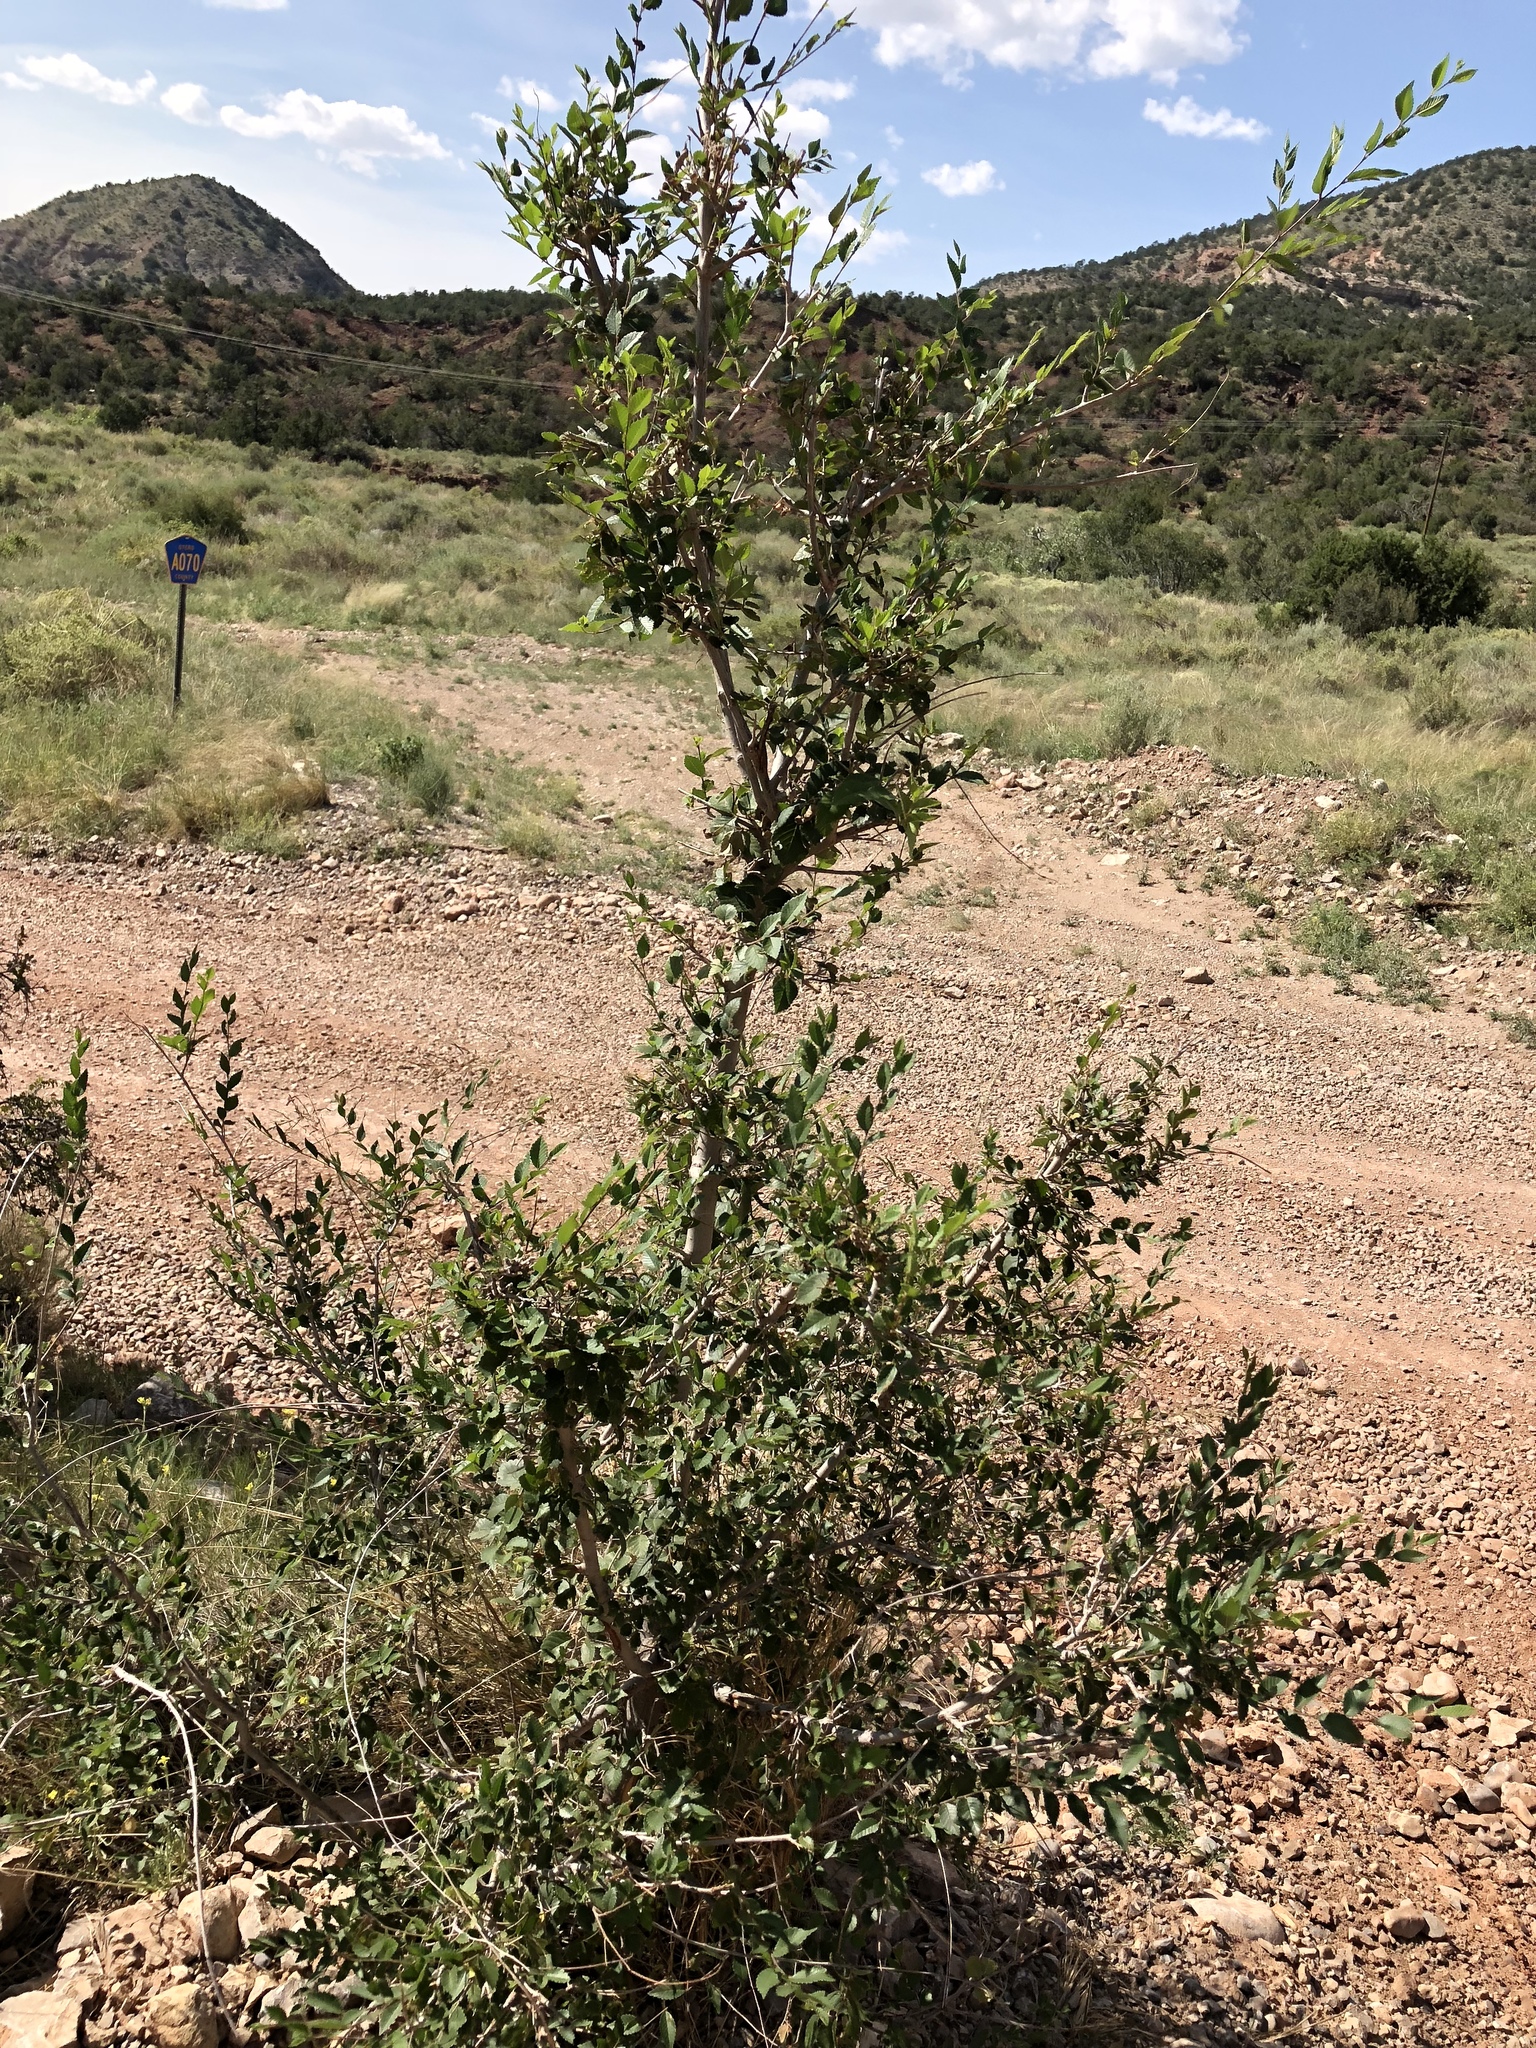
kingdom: Plantae
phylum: Tracheophyta
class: Magnoliopsida
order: Rosales
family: Ulmaceae
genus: Ulmus
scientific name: Ulmus pumila
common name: Siberian elm
